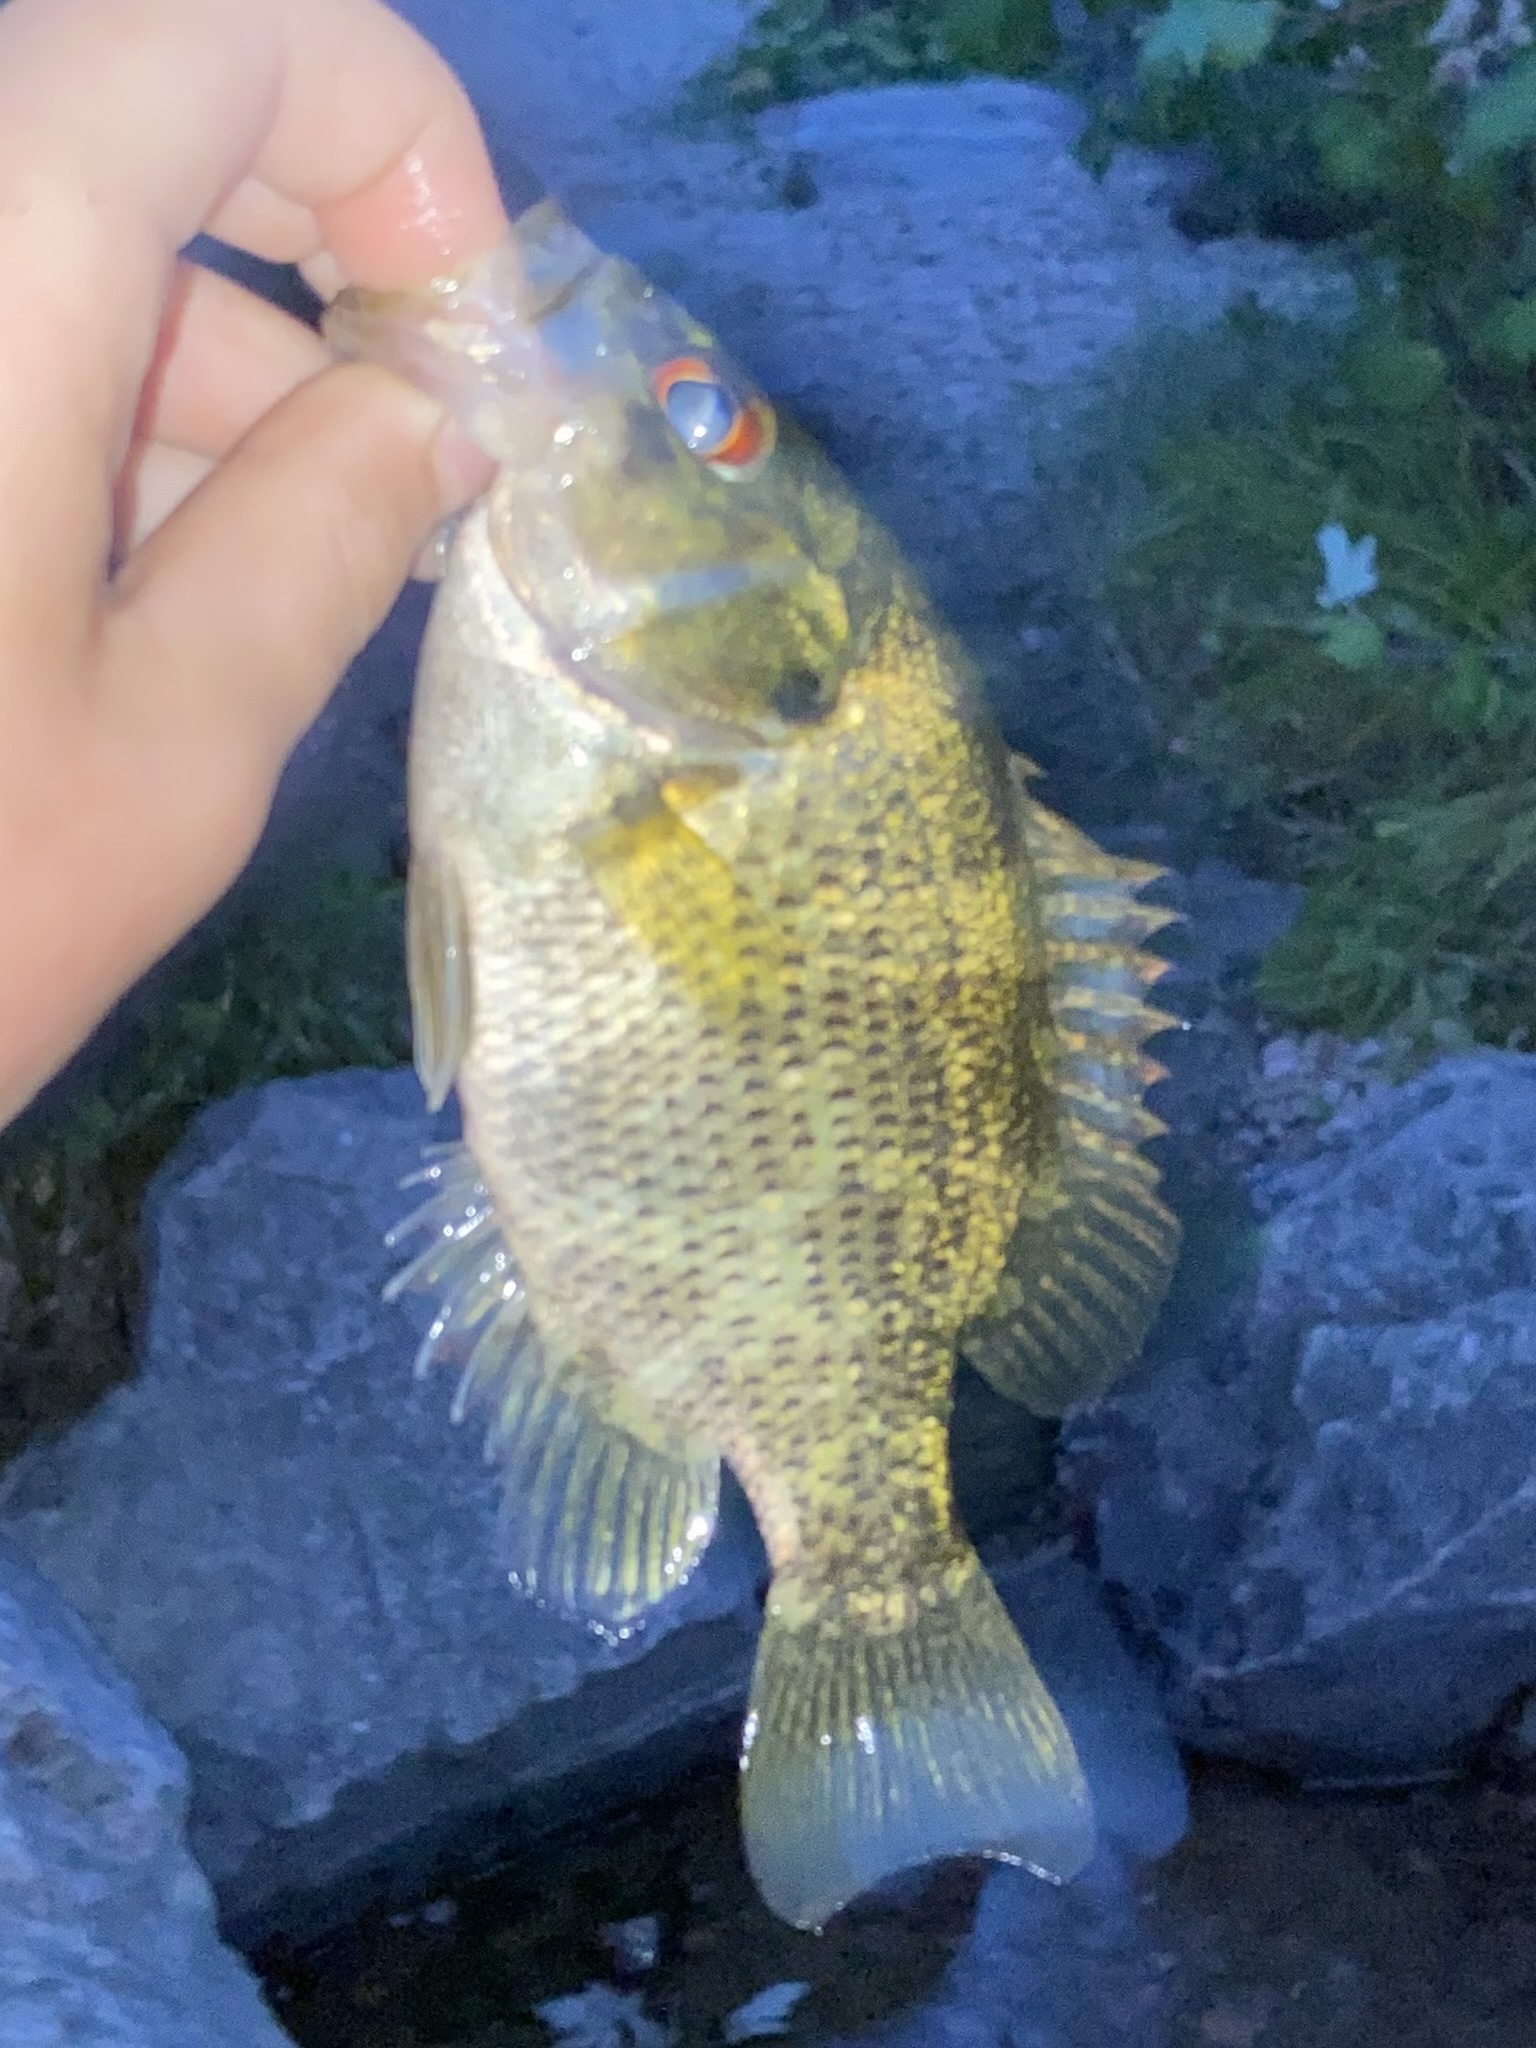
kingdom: Animalia
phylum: Chordata
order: Perciformes
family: Centrarchidae
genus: Ambloplites
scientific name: Ambloplites rupestris
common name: Rock bass
